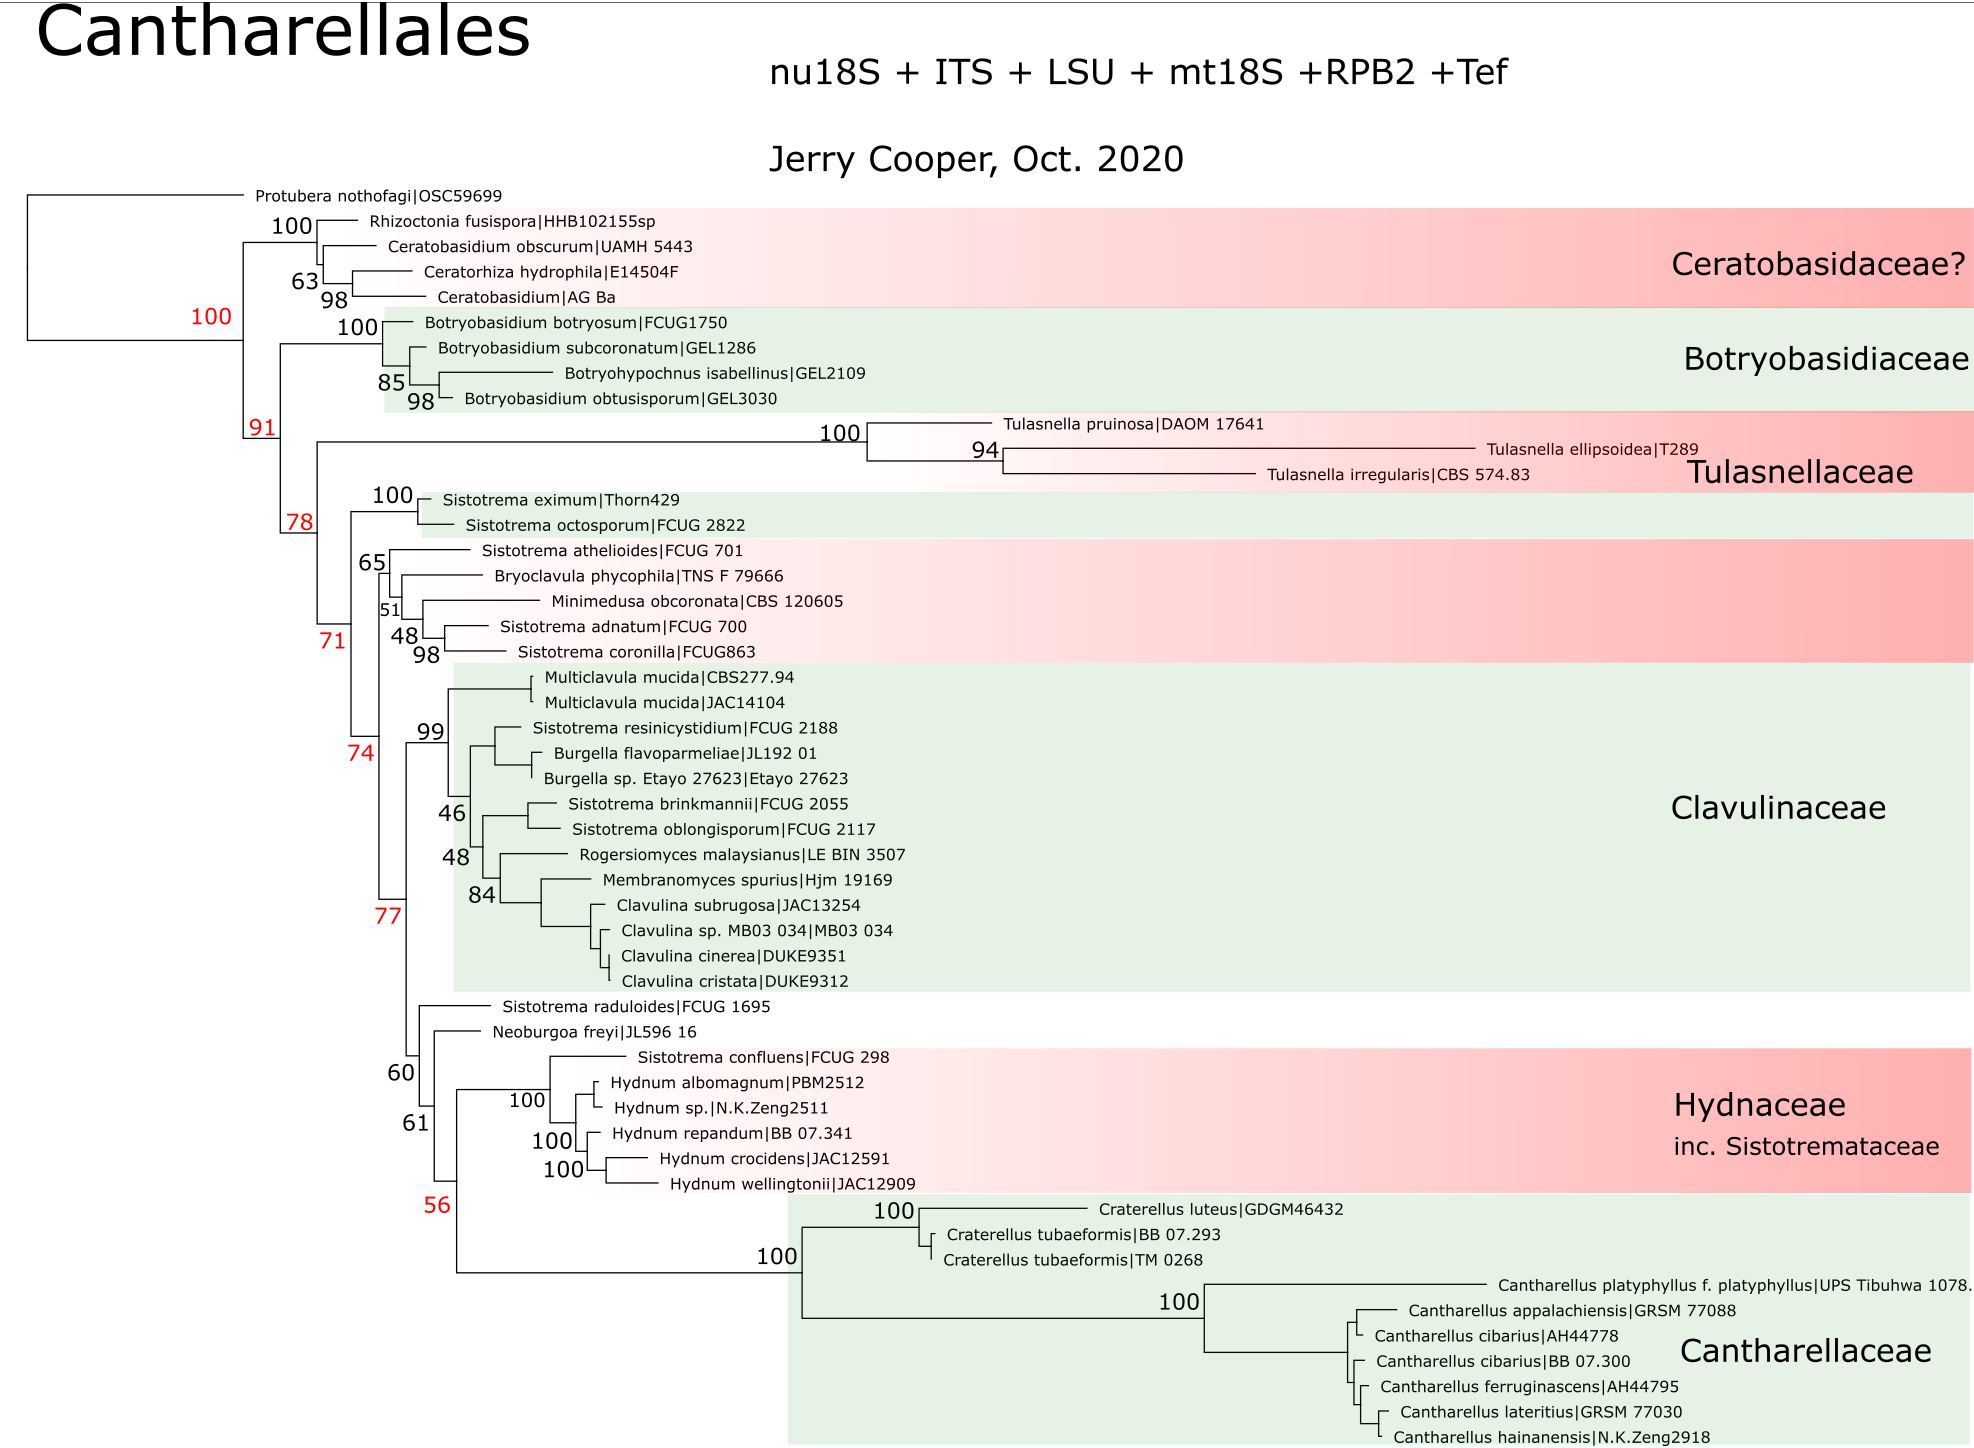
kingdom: Fungi
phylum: Basidiomycota
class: Agaricomycetes
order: Cantharellales
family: Hydnaceae
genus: Hydnum
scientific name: Hydnum ambustum
